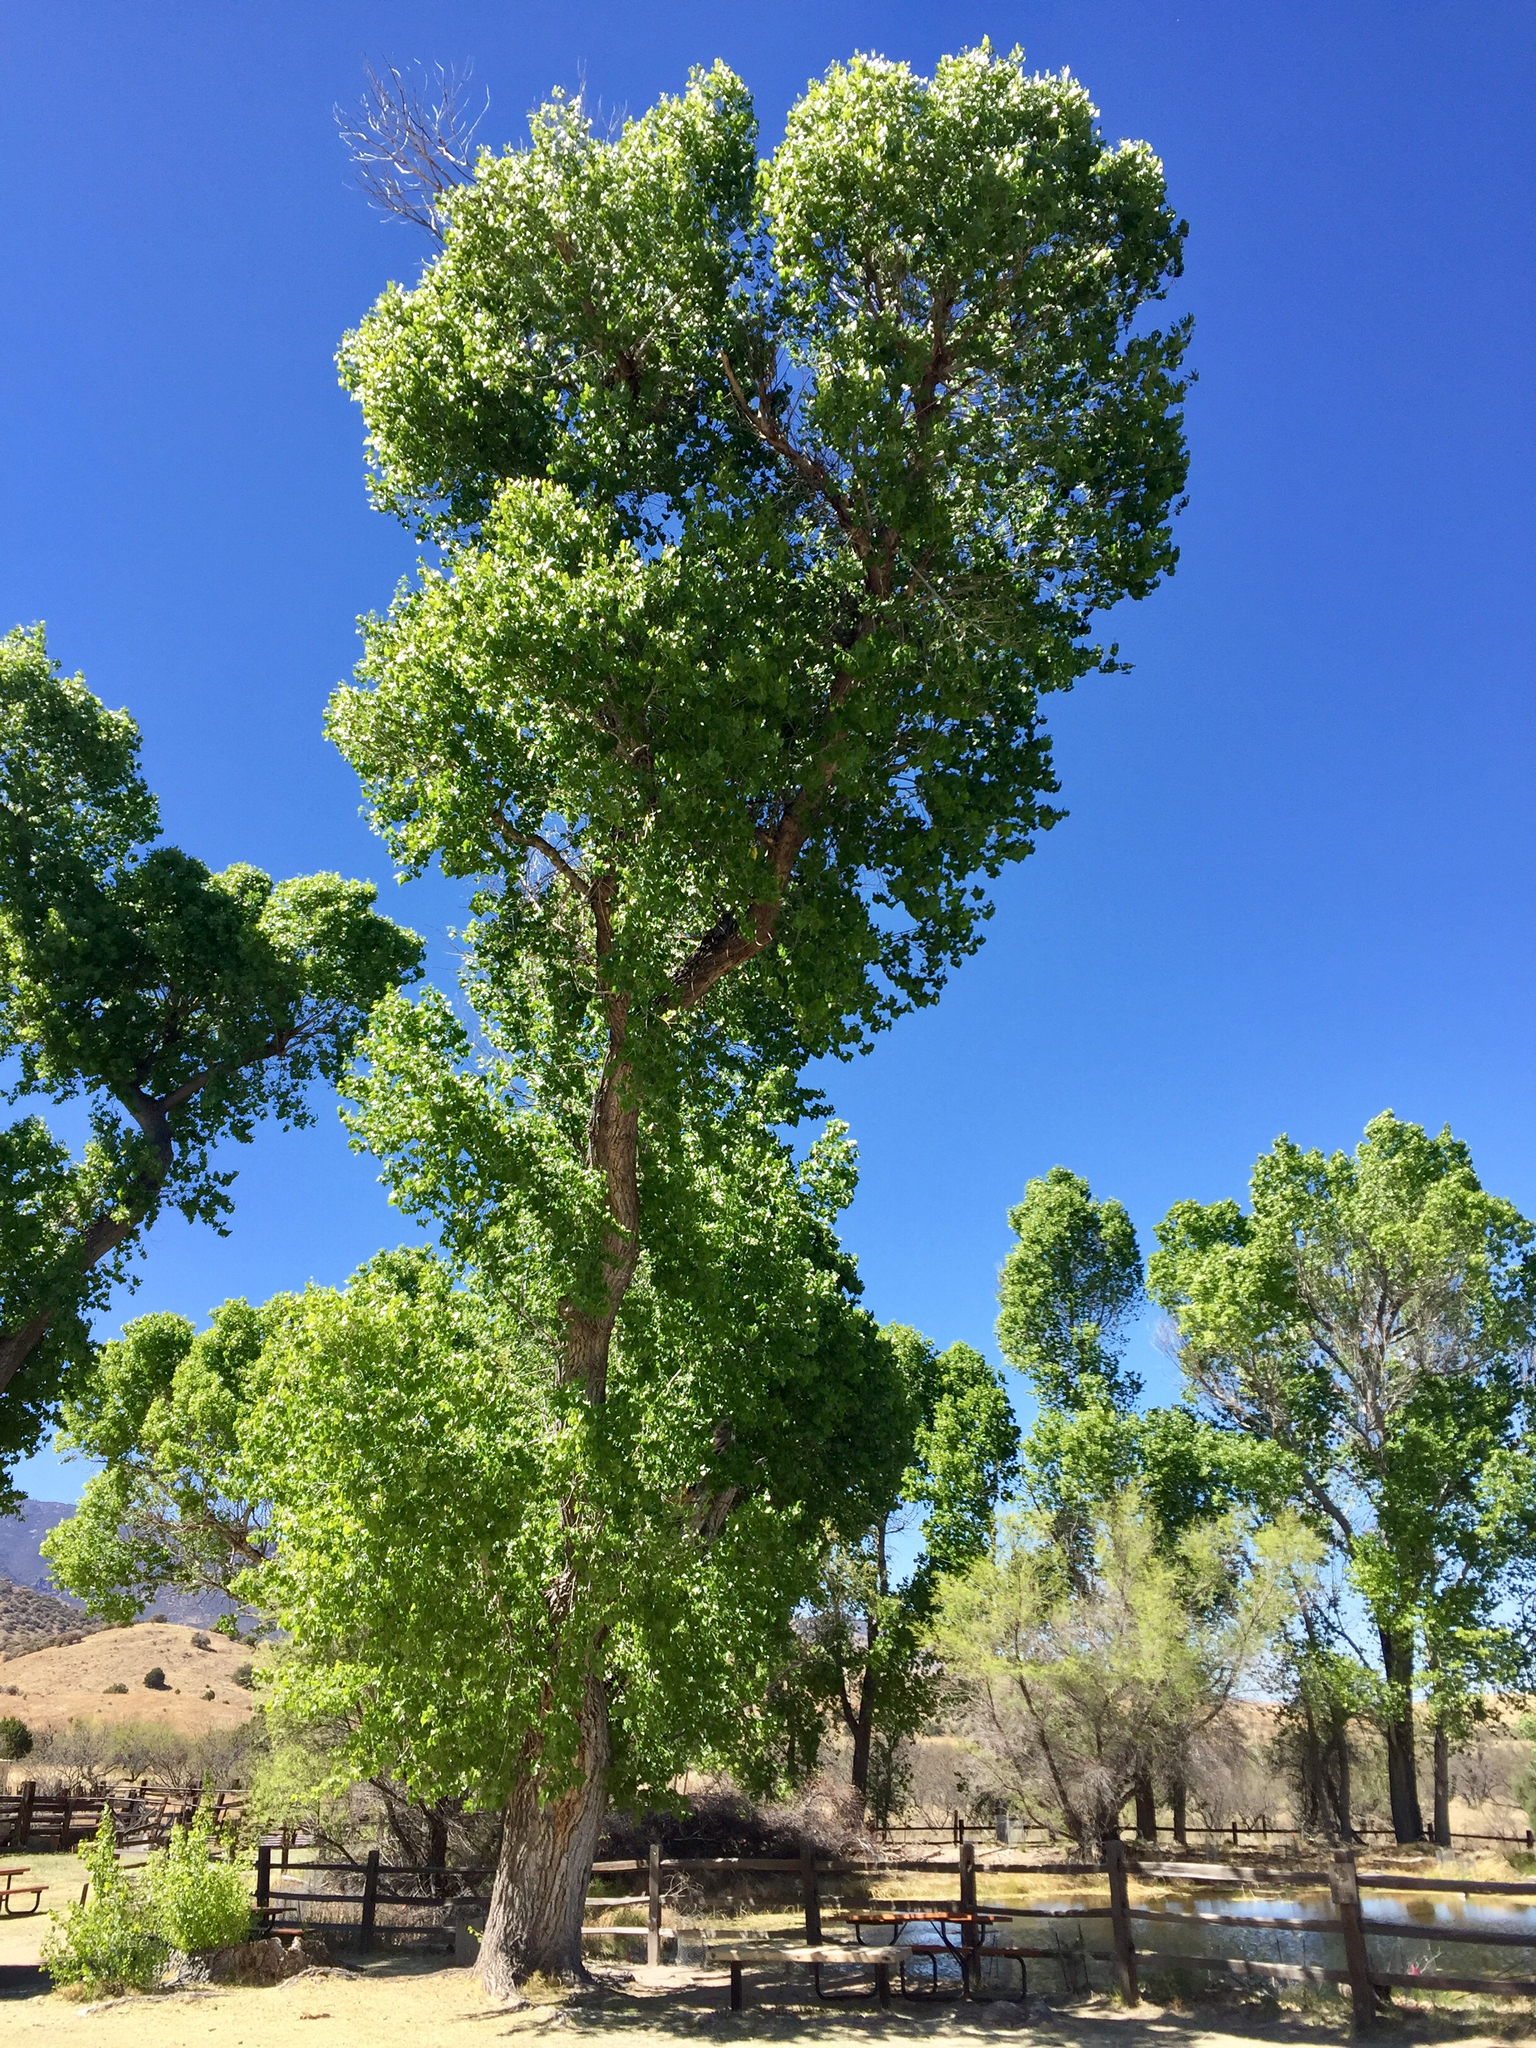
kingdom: Plantae
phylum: Tracheophyta
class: Magnoliopsida
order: Malpighiales
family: Salicaceae
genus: Populus
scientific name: Populus fremontii
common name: Fremont's cottonwood
